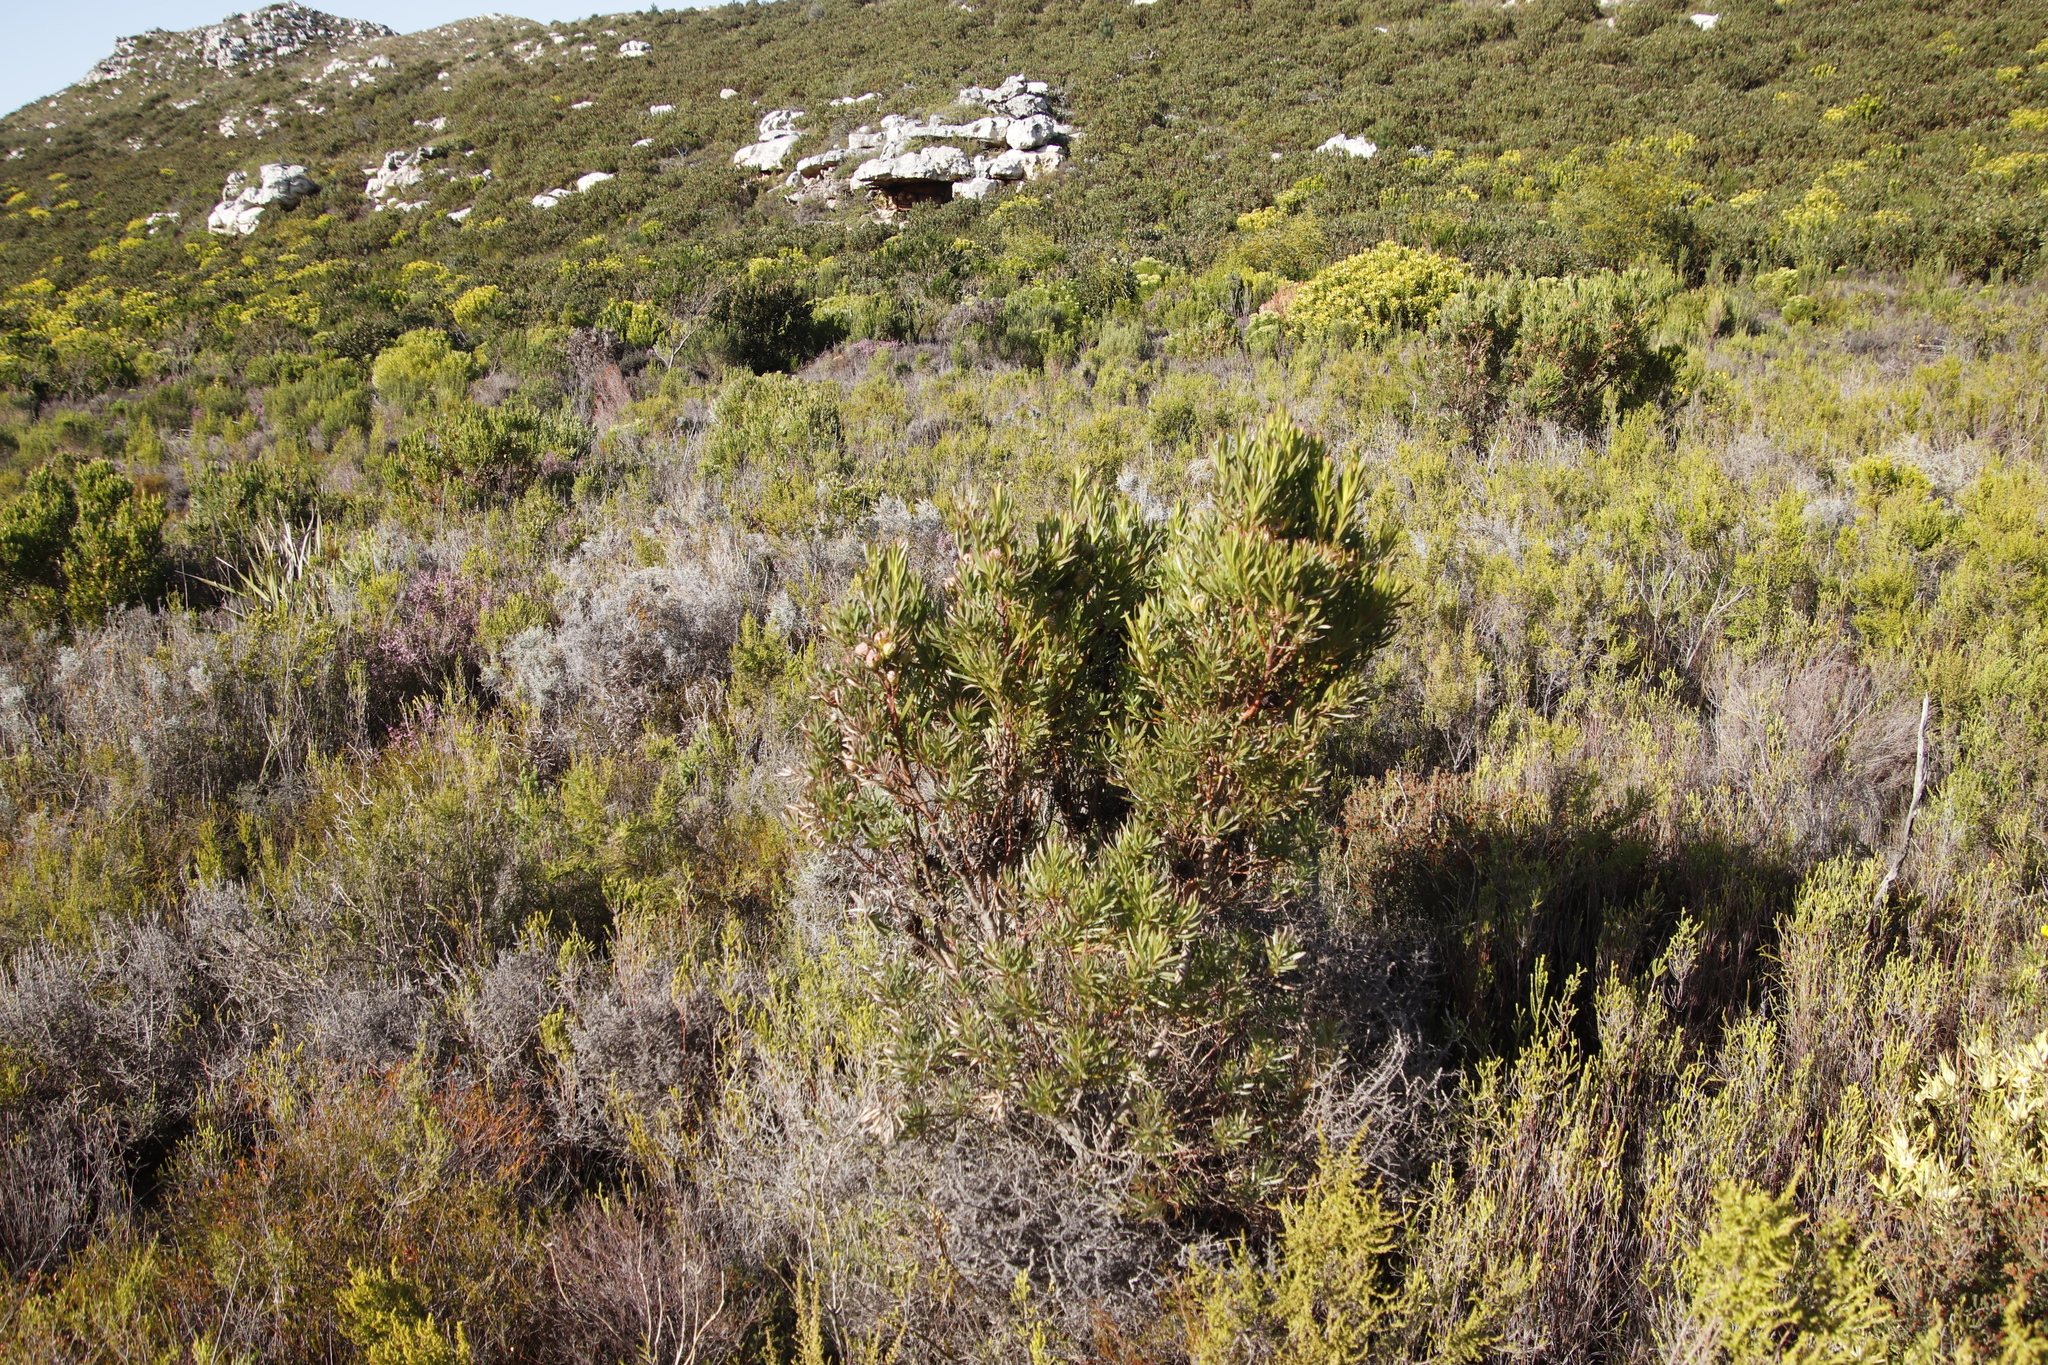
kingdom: Plantae
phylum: Tracheophyta
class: Magnoliopsida
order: Proteales
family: Proteaceae
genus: Leucadendron
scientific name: Leucadendron xanthoconus
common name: Sickle-leaf conebush
